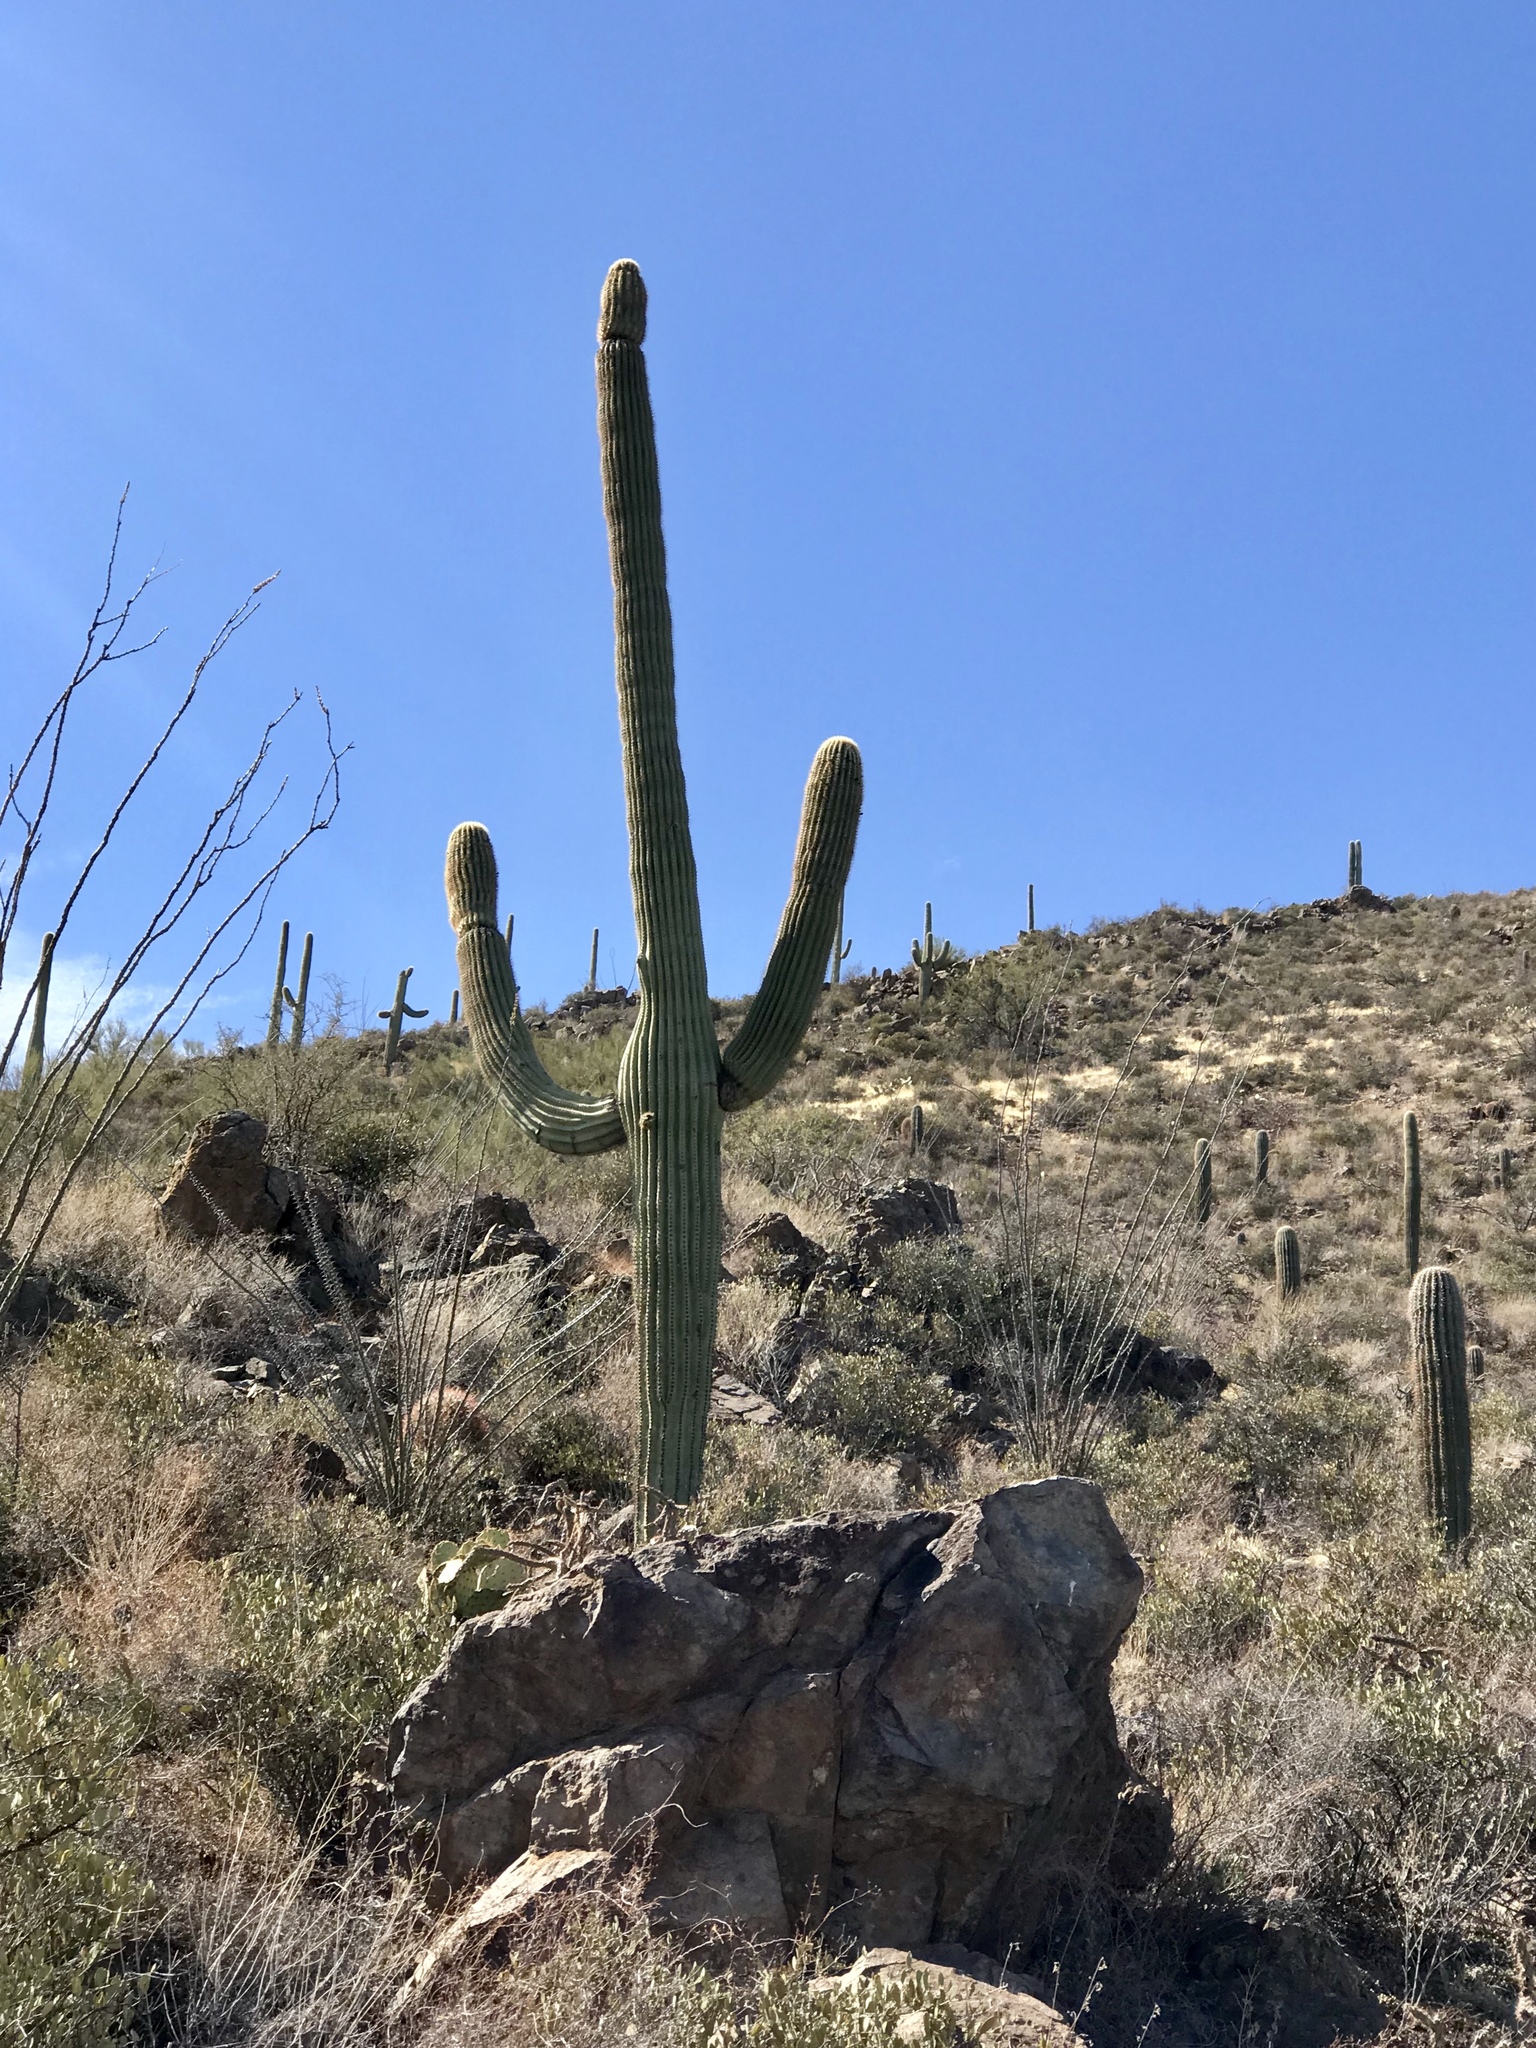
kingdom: Plantae
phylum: Tracheophyta
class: Magnoliopsida
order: Caryophyllales
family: Cactaceae
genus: Carnegiea
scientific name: Carnegiea gigantea
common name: Saguaro
